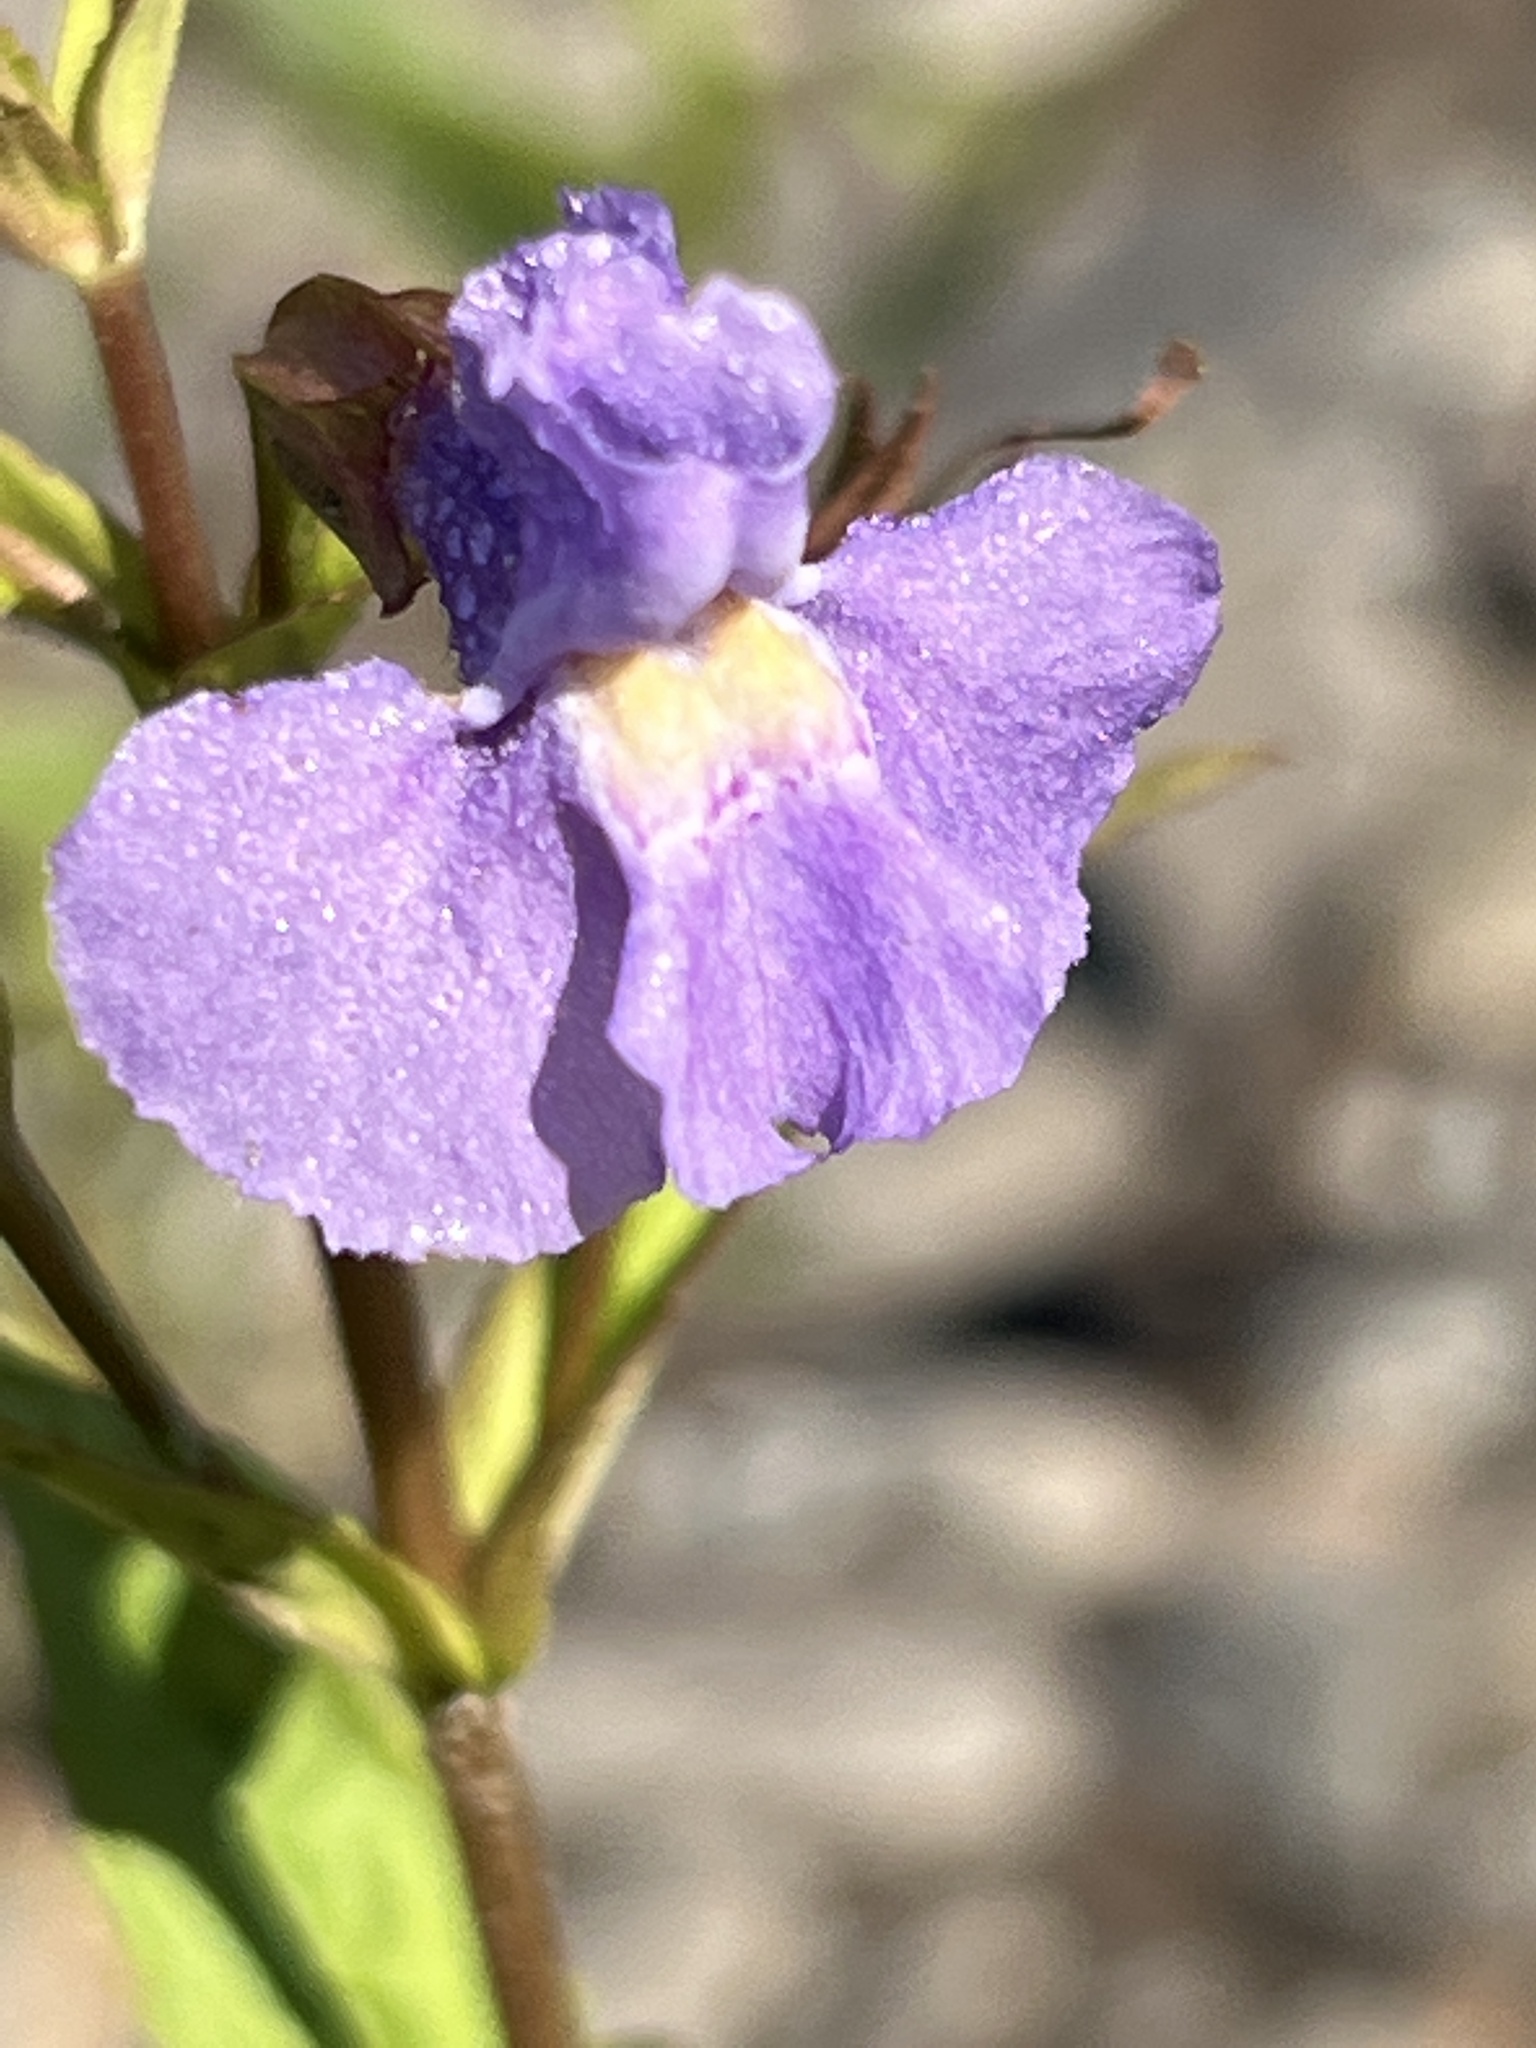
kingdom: Plantae
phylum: Tracheophyta
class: Magnoliopsida
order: Lamiales
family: Phrymaceae
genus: Mimulus
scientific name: Mimulus ringens
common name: Allegheny monkeyflower
